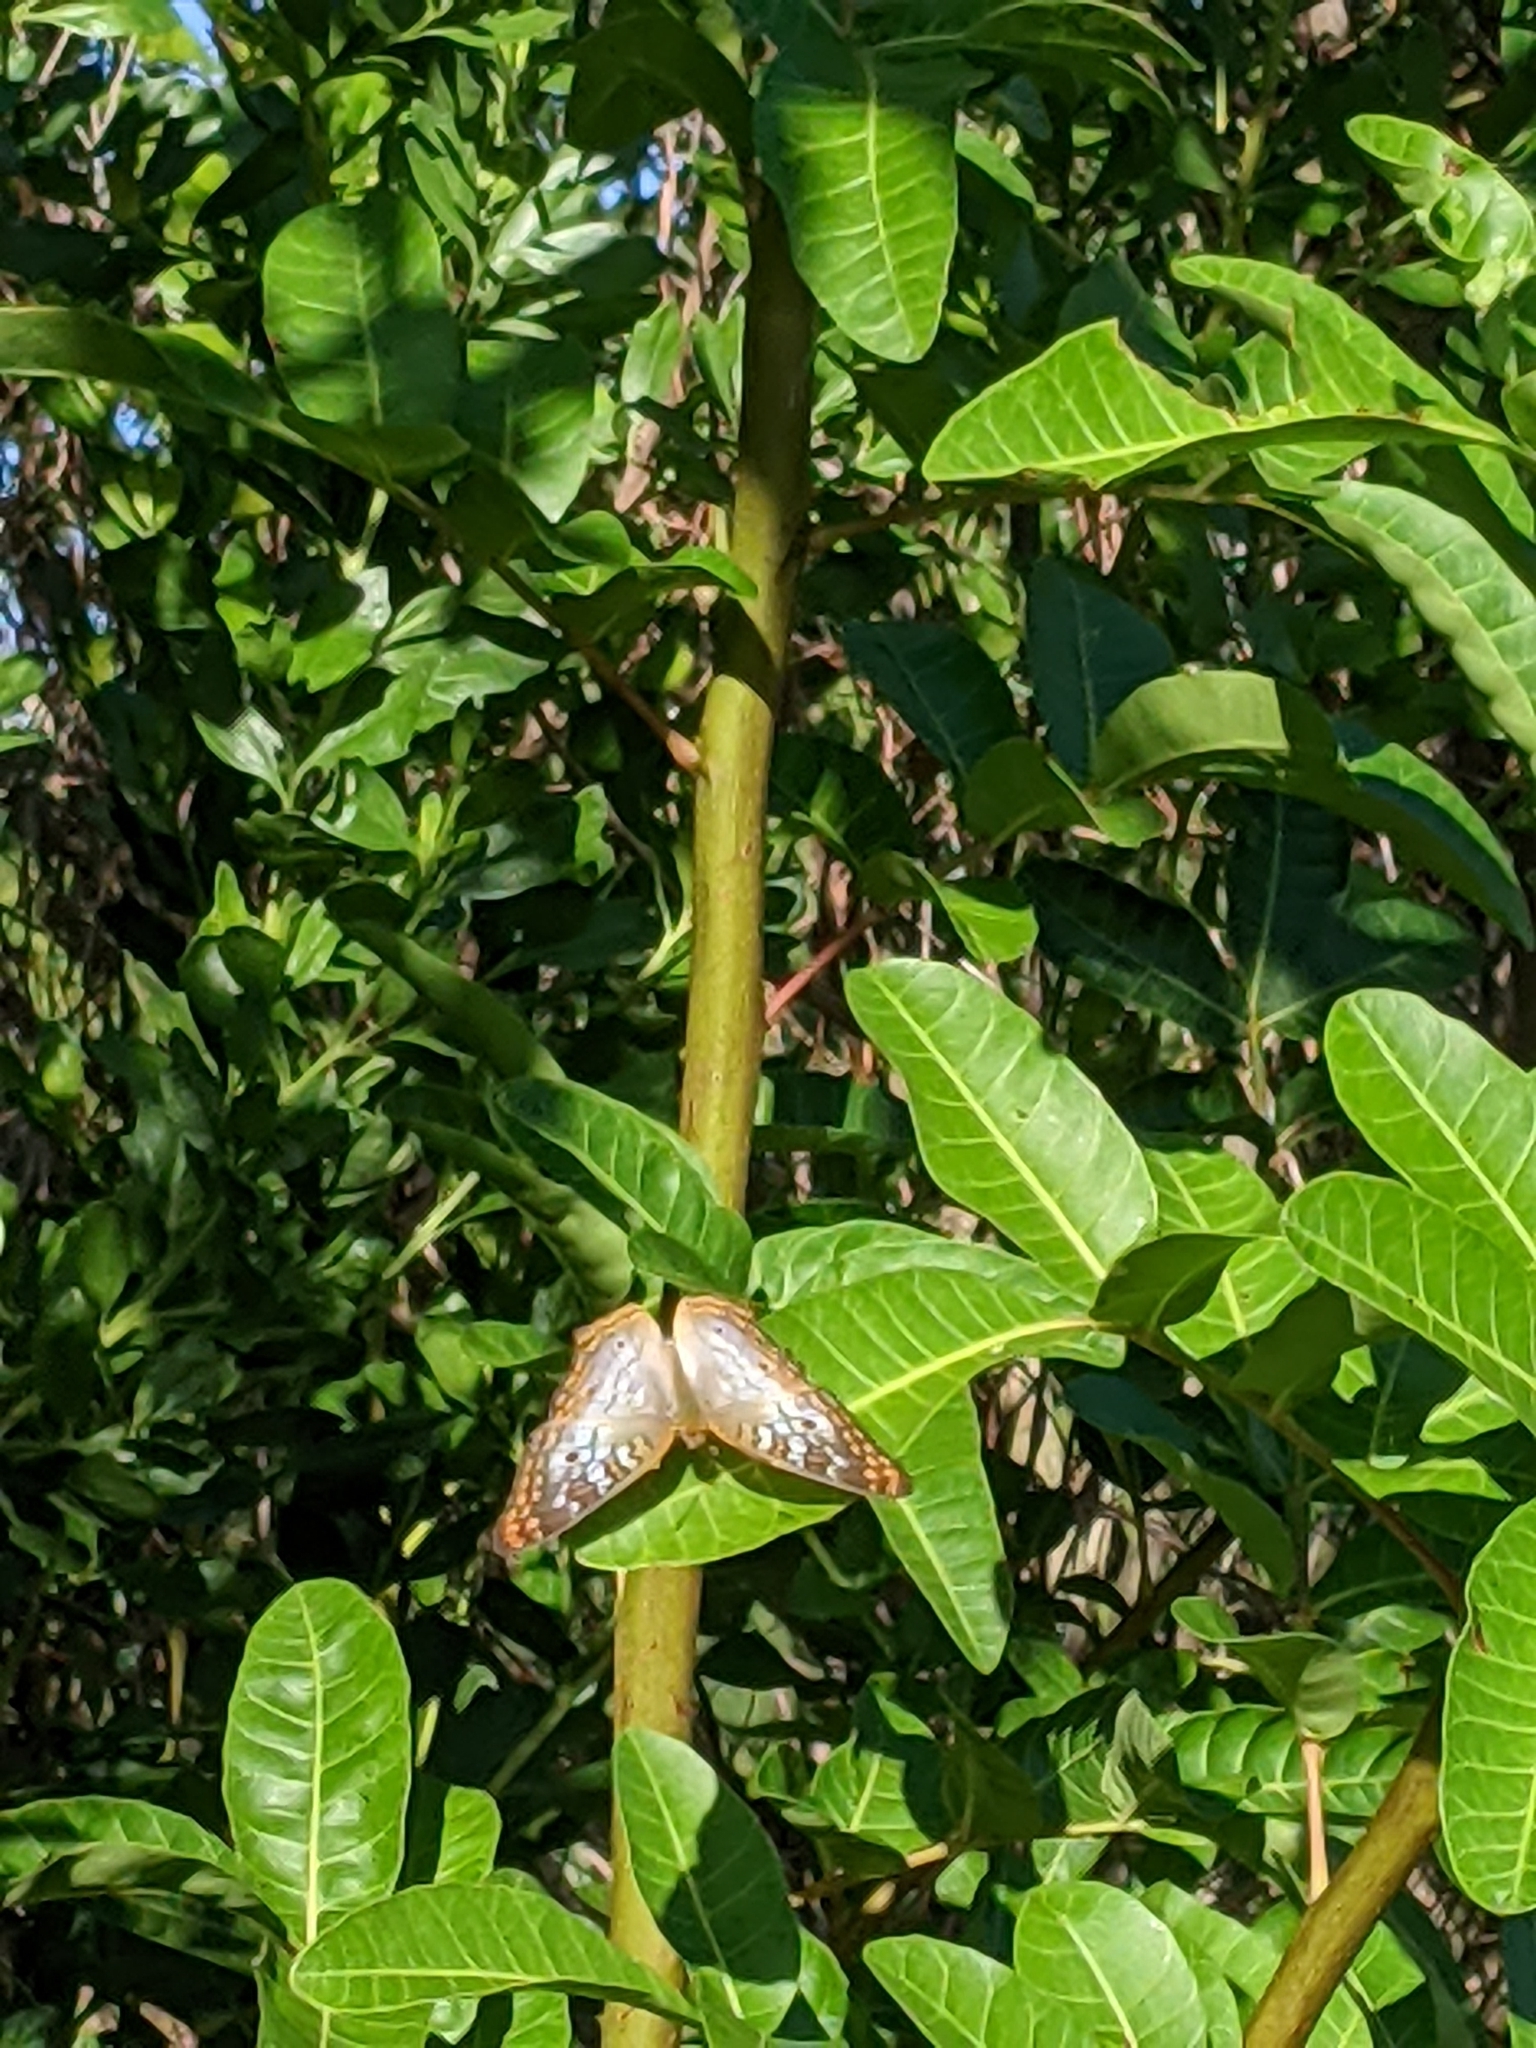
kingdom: Animalia
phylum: Arthropoda
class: Insecta
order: Lepidoptera
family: Nymphalidae
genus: Anartia
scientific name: Anartia jatrophae
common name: White peacock
